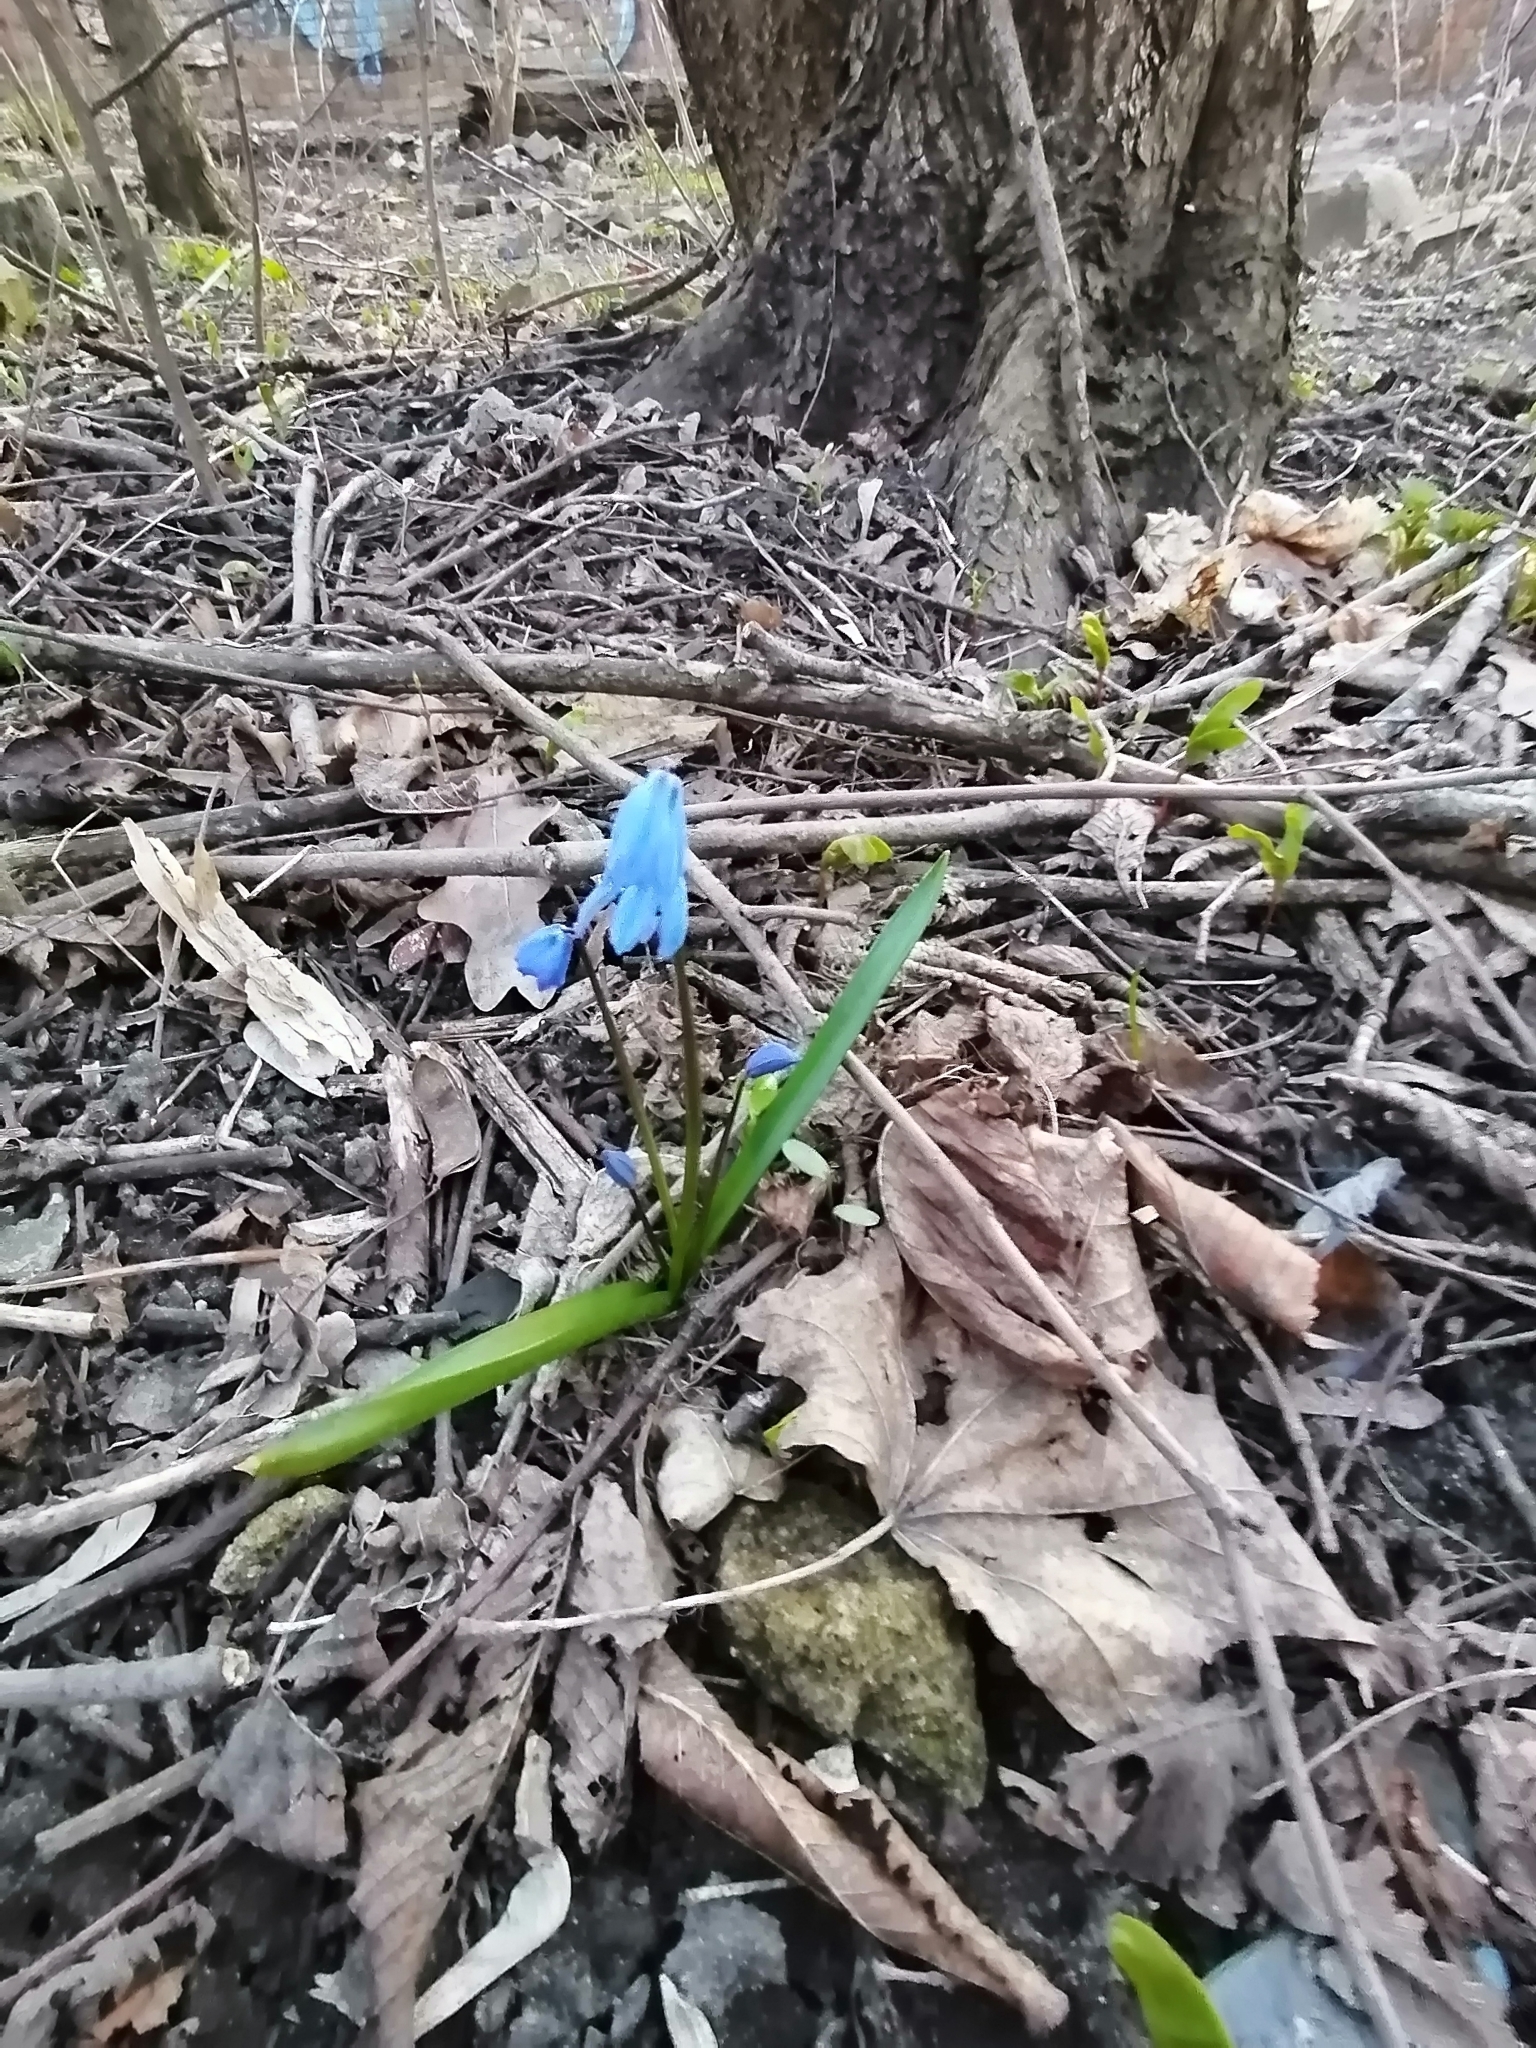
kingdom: Plantae
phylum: Tracheophyta
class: Liliopsida
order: Asparagales
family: Asparagaceae
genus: Scilla
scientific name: Scilla siberica
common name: Siberian squill
